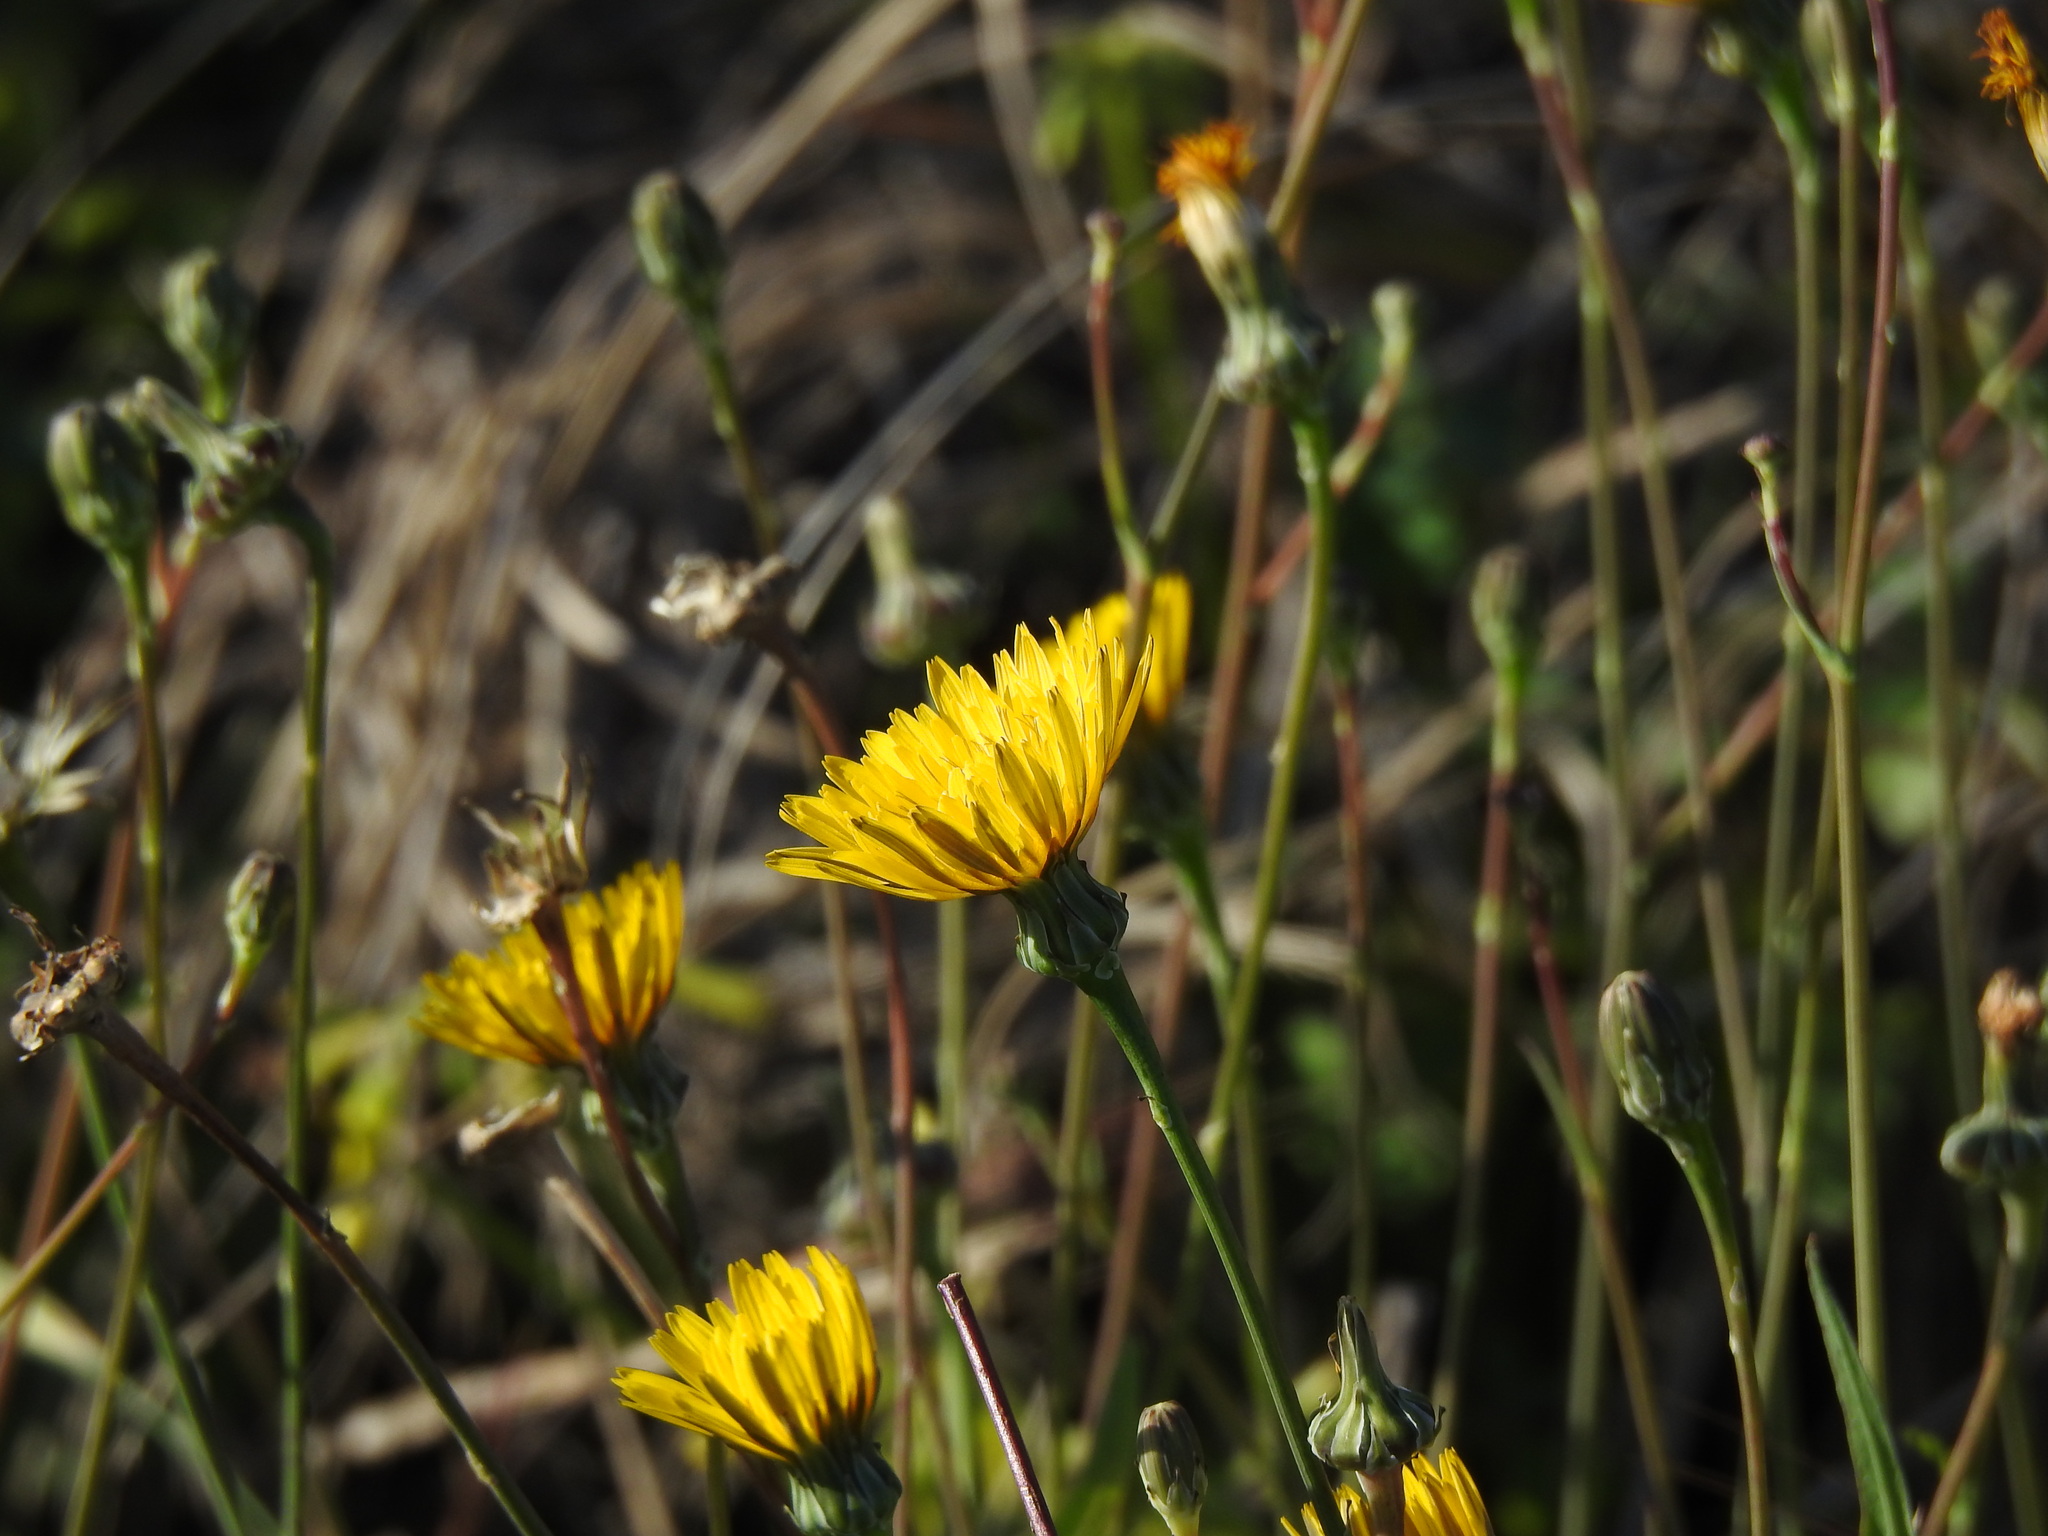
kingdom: Plantae
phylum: Tracheophyta
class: Magnoliopsida
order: Asterales
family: Asteraceae
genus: Reichardia
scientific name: Reichardia picroides
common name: Common brighteyes
